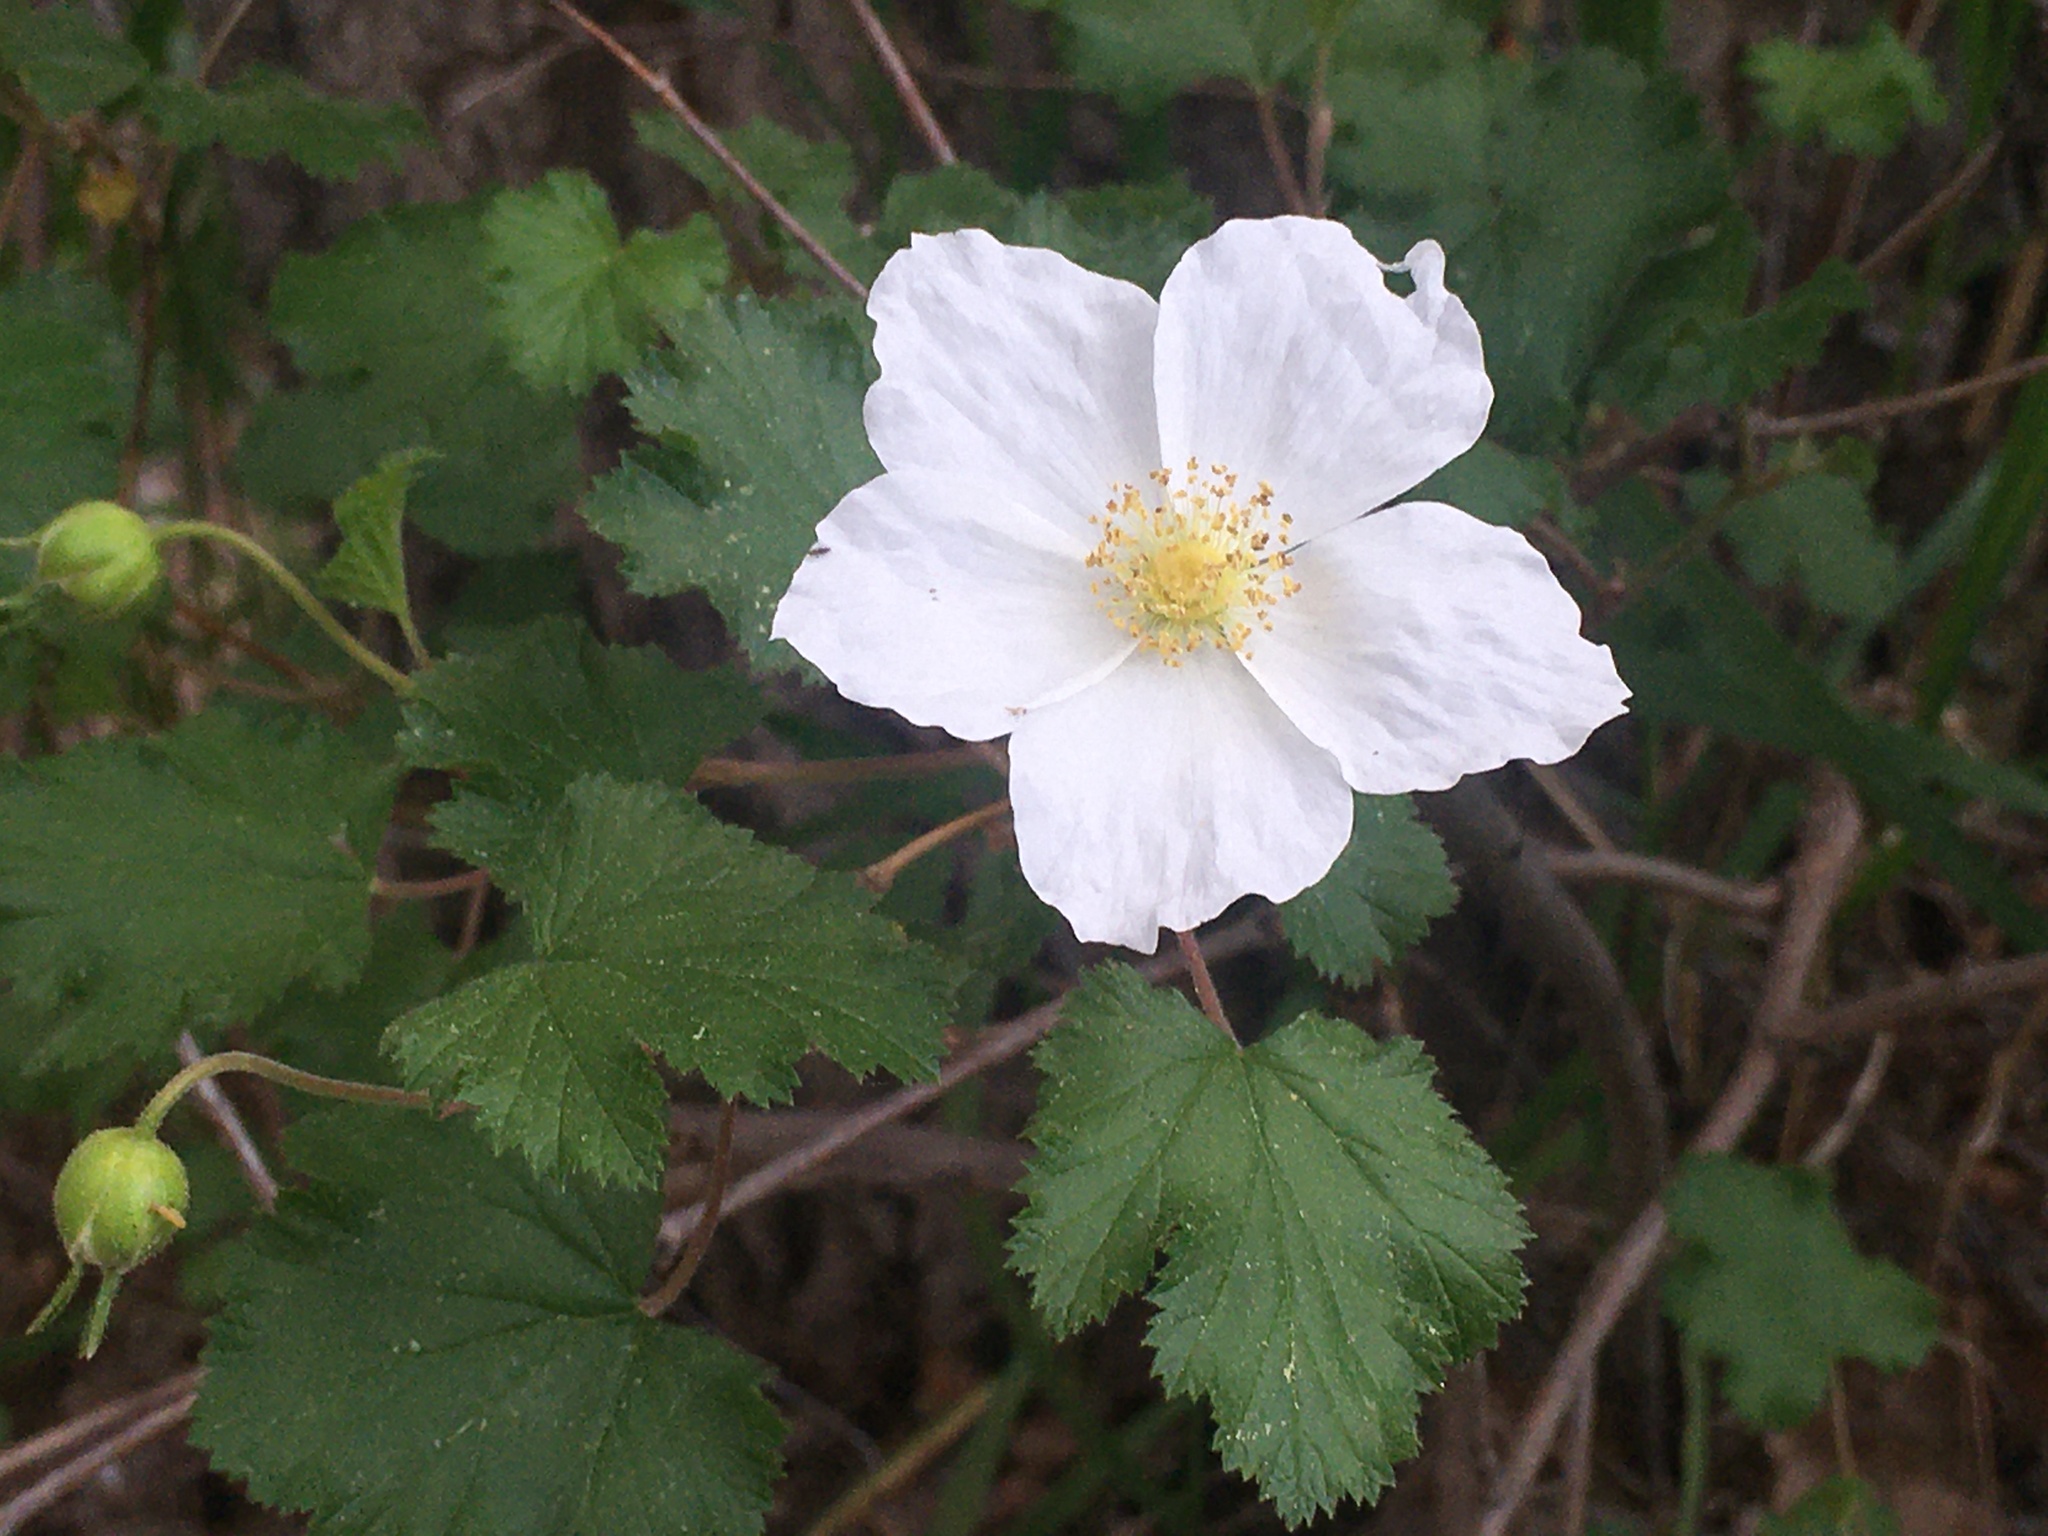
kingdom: Plantae
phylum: Tracheophyta
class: Magnoliopsida
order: Rosales
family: Rosaceae
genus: Rubus
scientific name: Rubus deliciosus
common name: Rocky mountain raspberry
